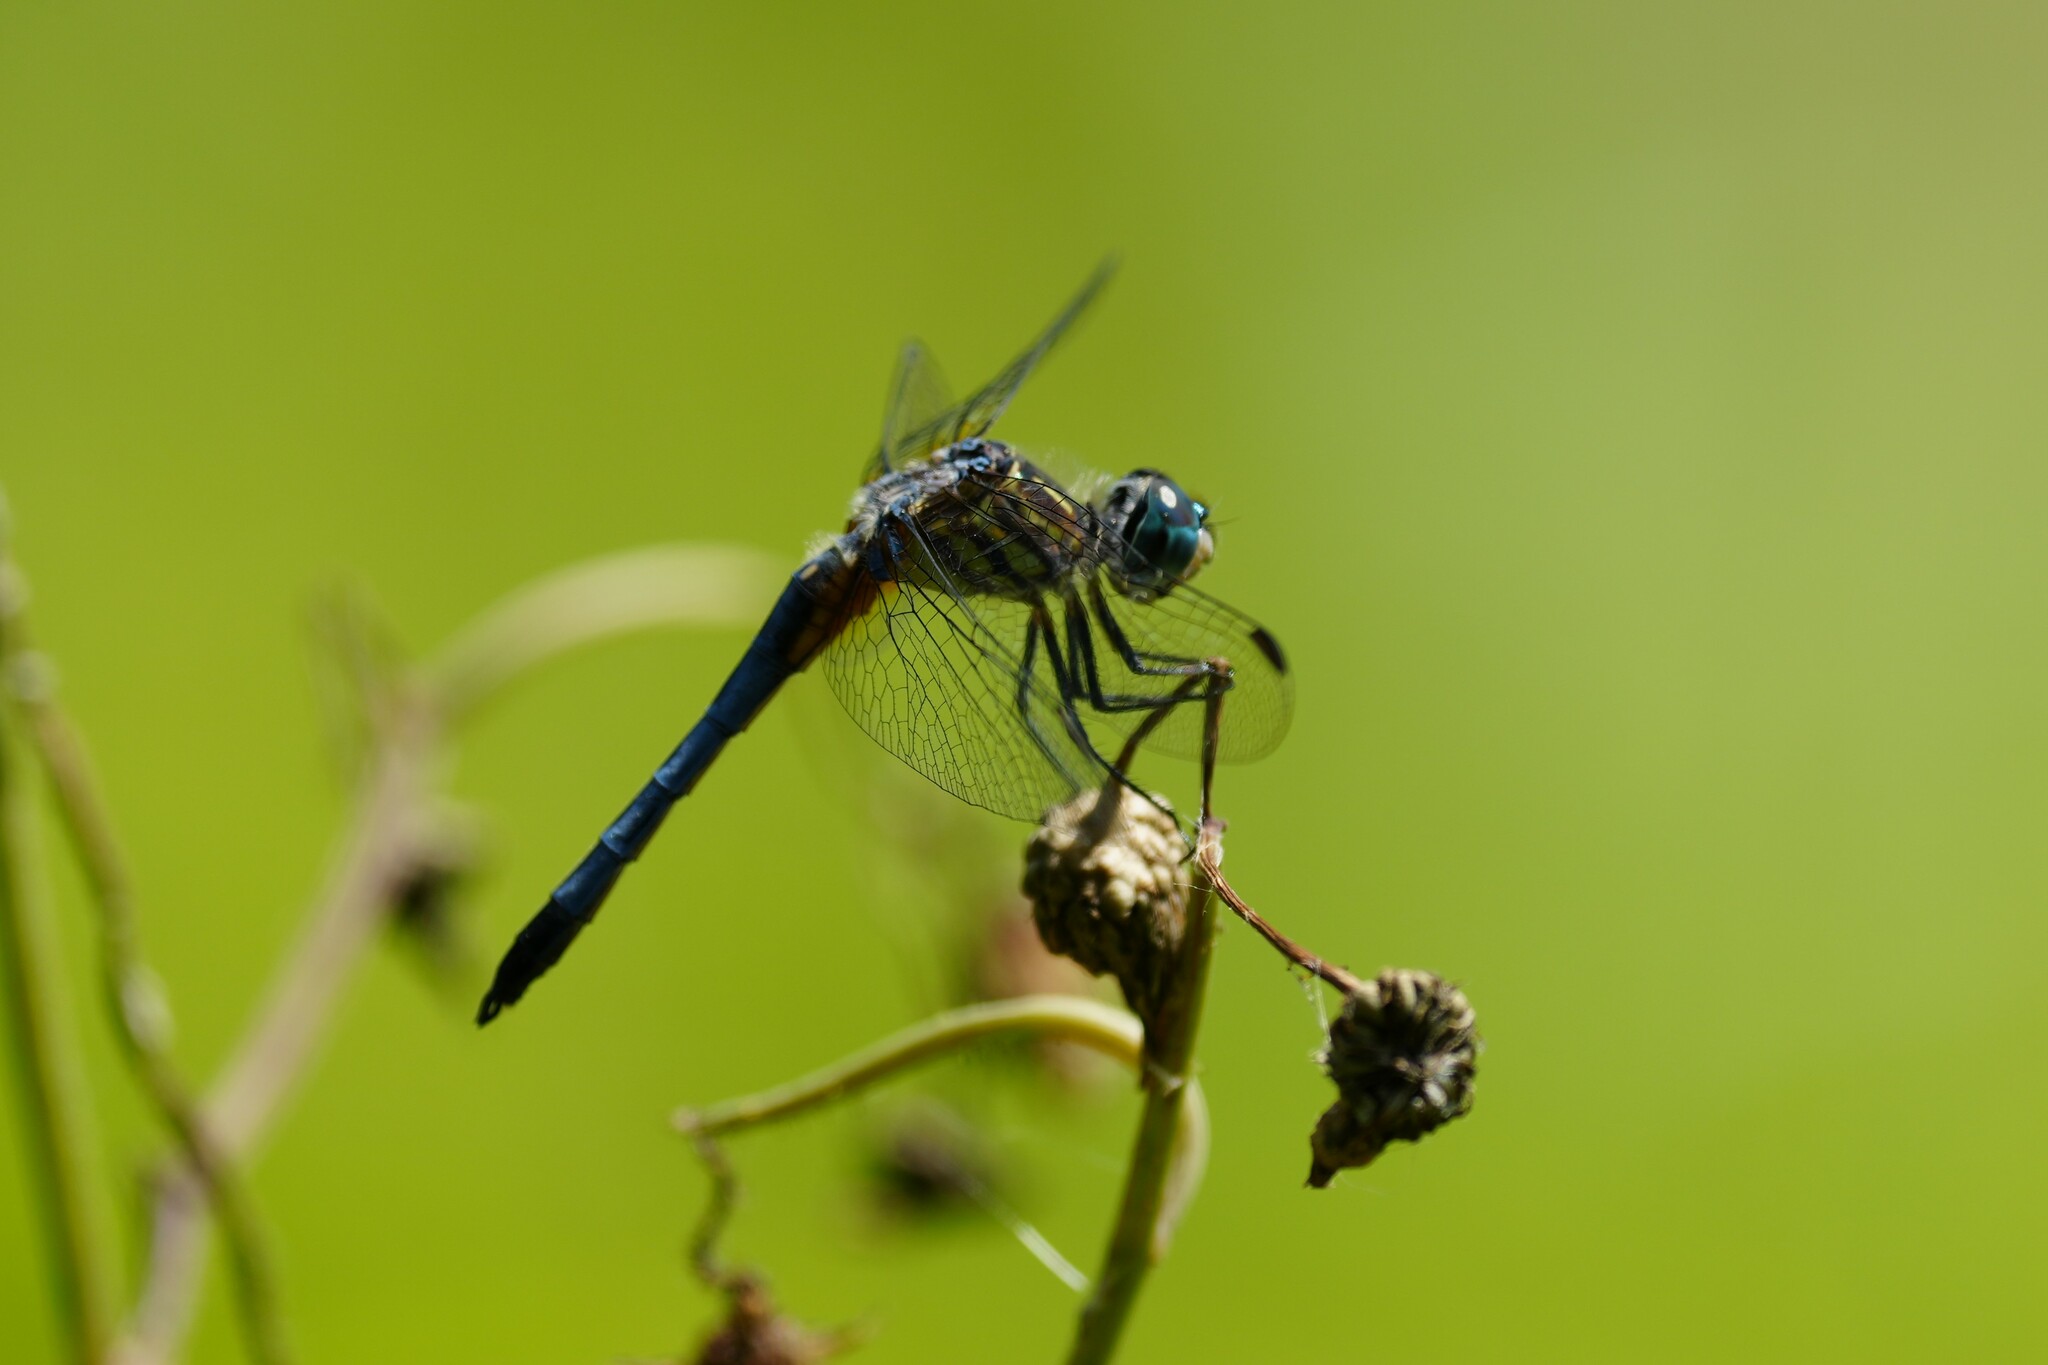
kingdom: Animalia
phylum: Arthropoda
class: Insecta
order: Odonata
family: Libellulidae
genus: Pachydiplax
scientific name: Pachydiplax longipennis
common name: Blue dasher
